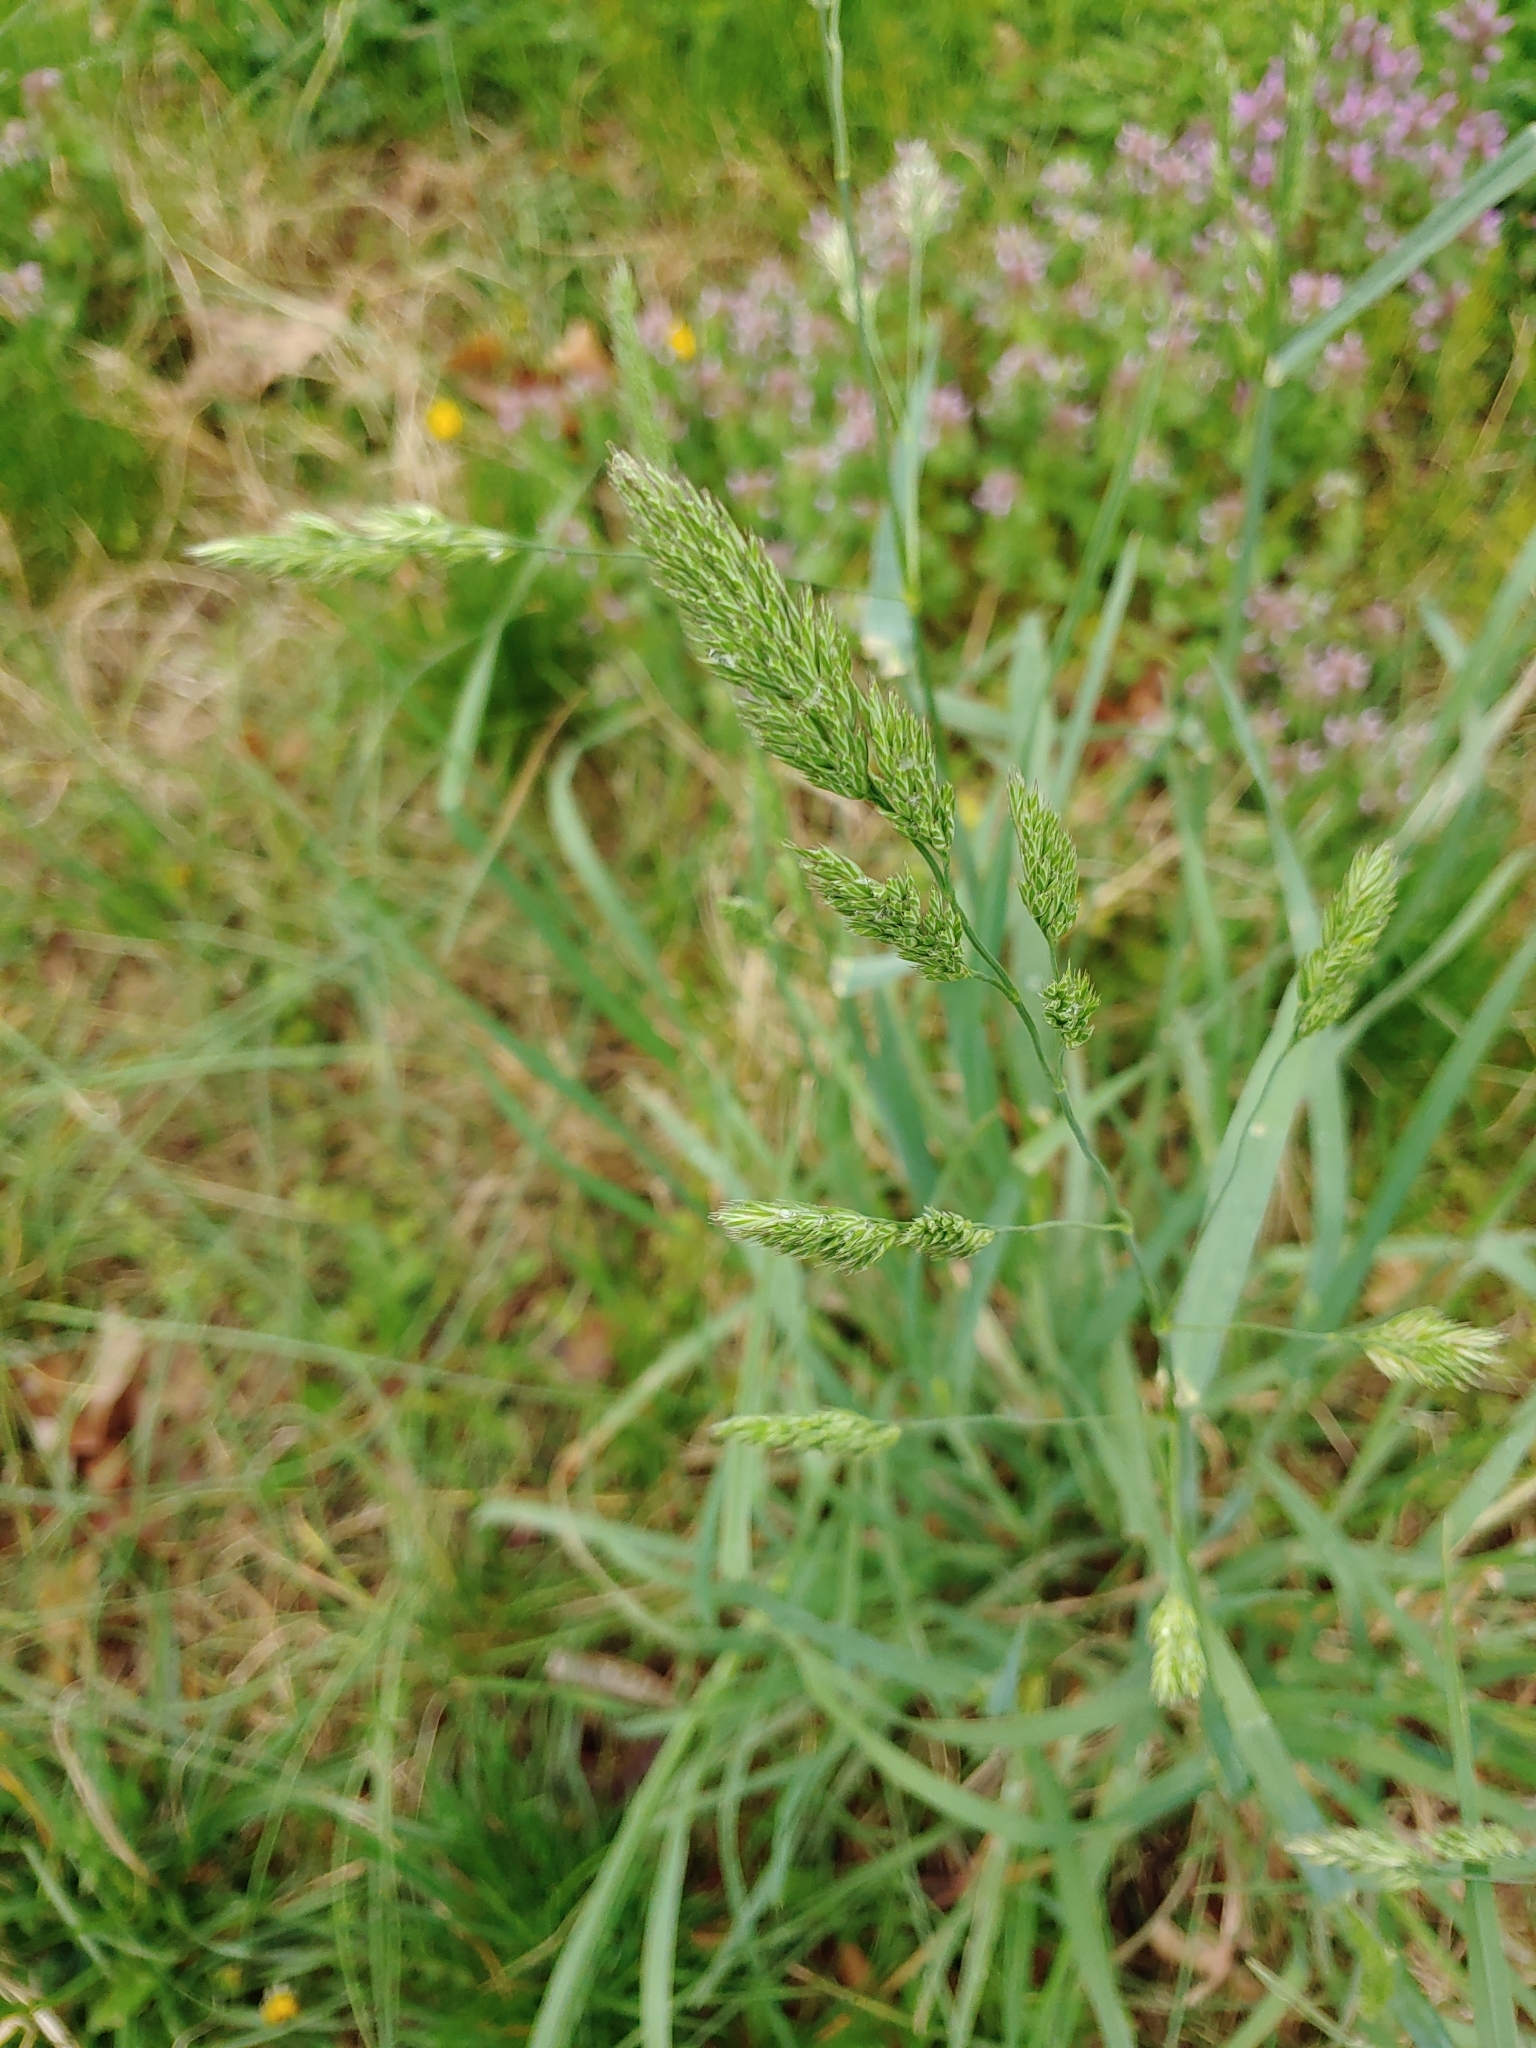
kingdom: Plantae
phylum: Tracheophyta
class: Liliopsida
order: Poales
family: Poaceae
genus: Dactylis
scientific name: Dactylis glomerata
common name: Orchardgrass
